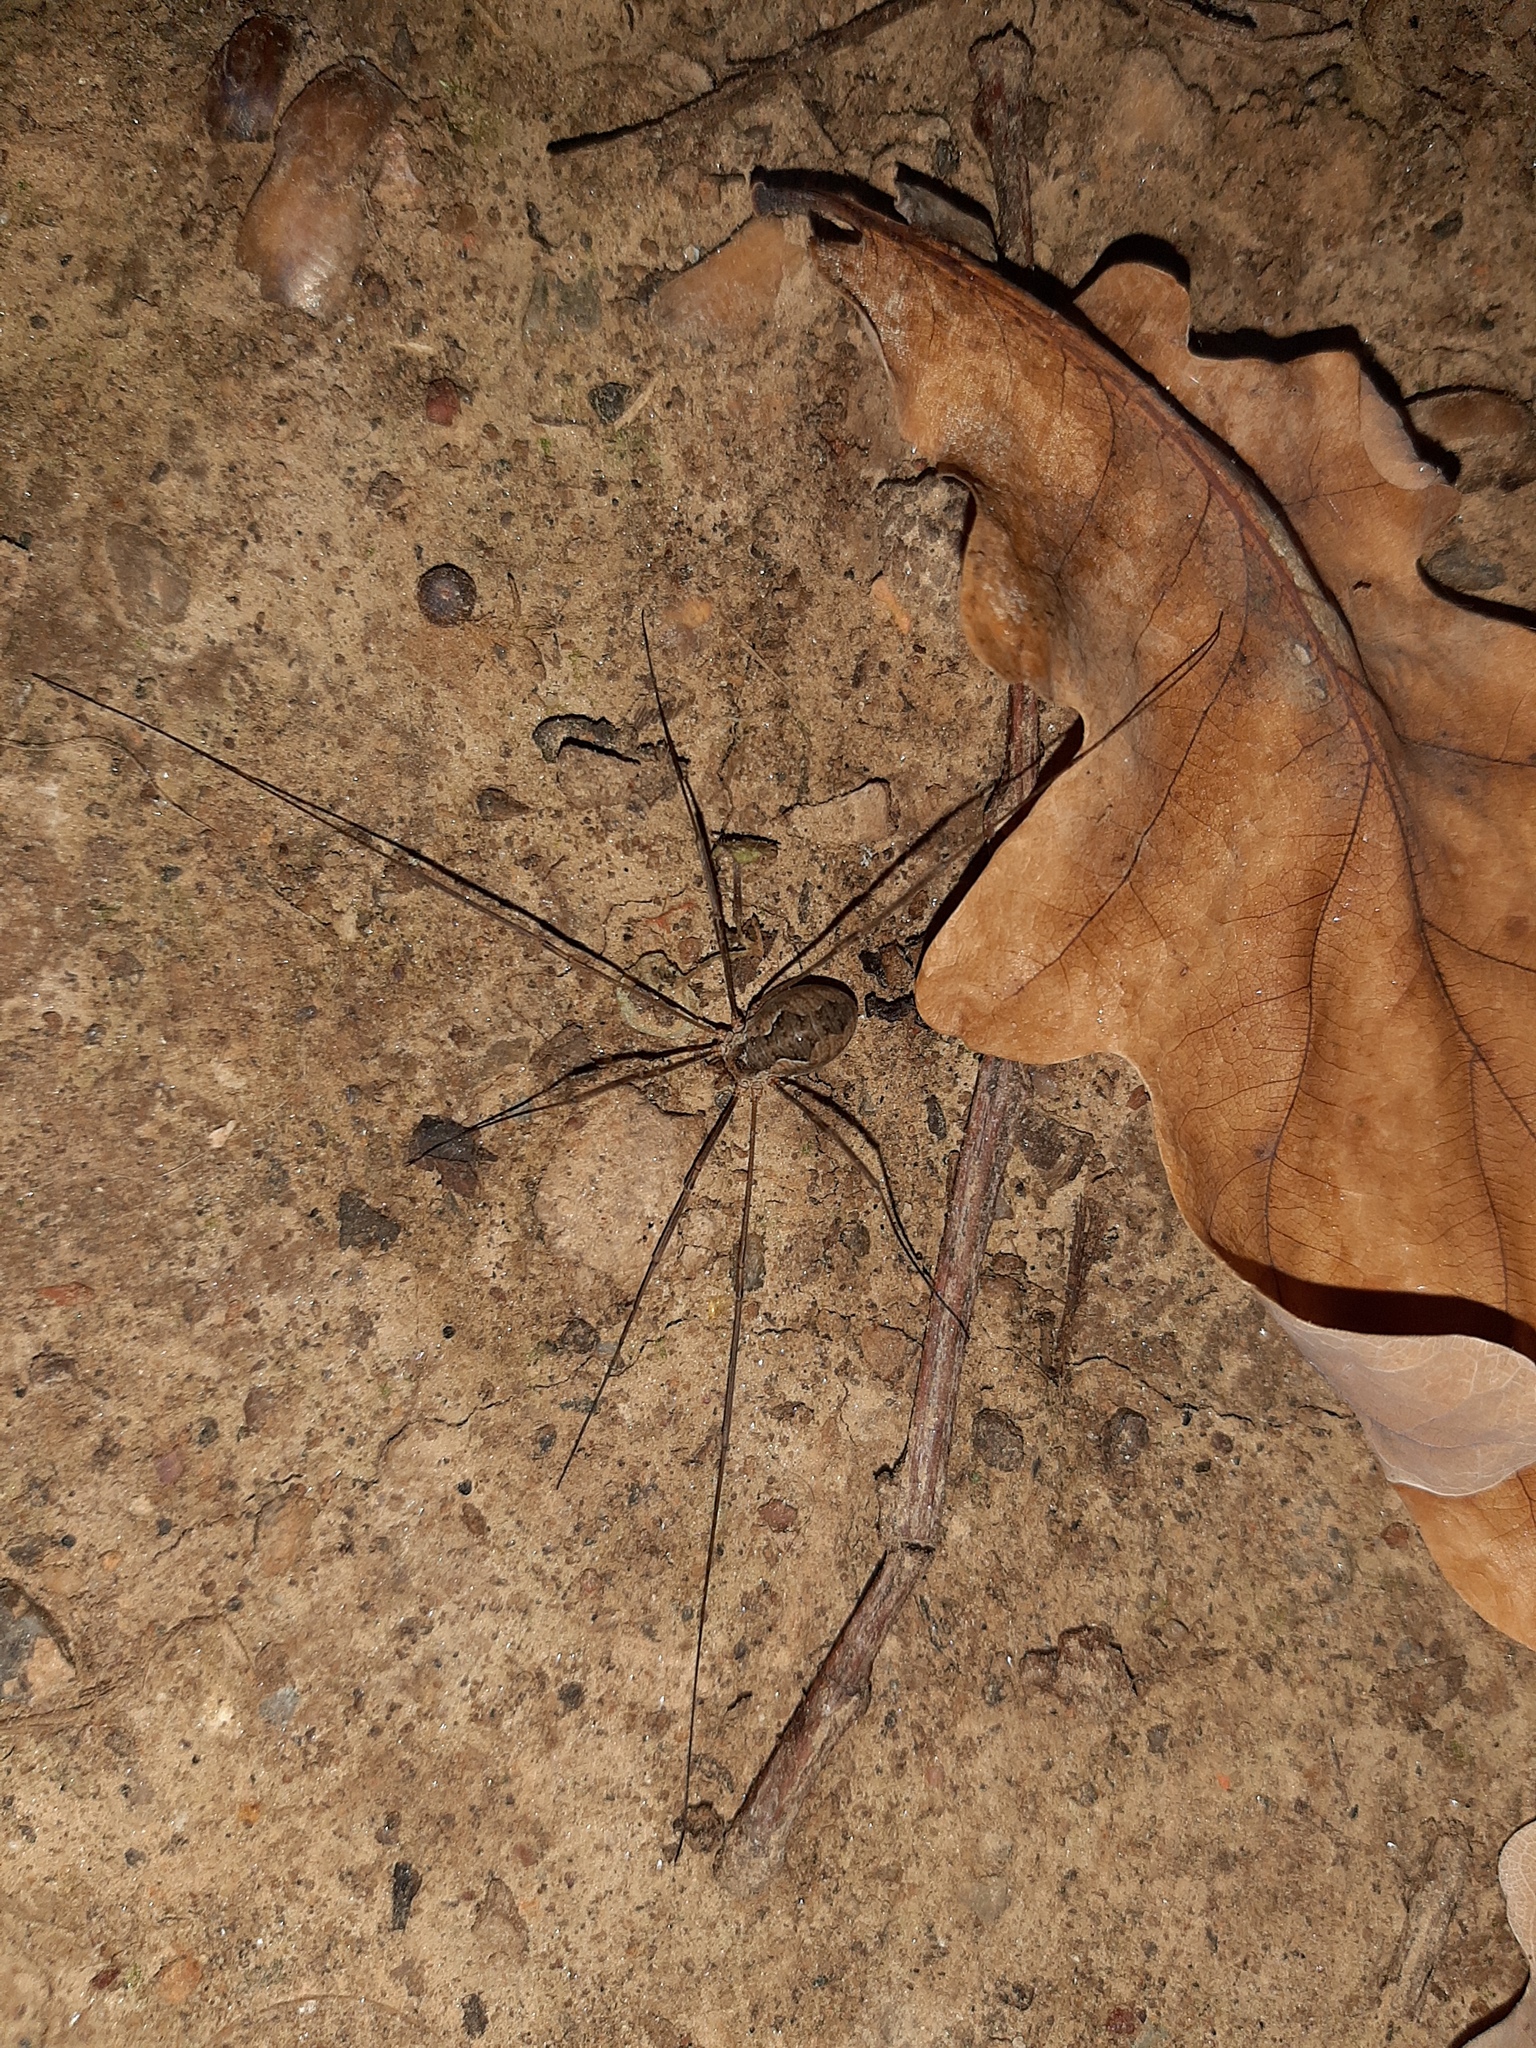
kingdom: Animalia
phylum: Arthropoda
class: Arachnida
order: Opiliones
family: Phalangiidae
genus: Phalangium
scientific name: Phalangium opilio
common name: Daddy longleg
